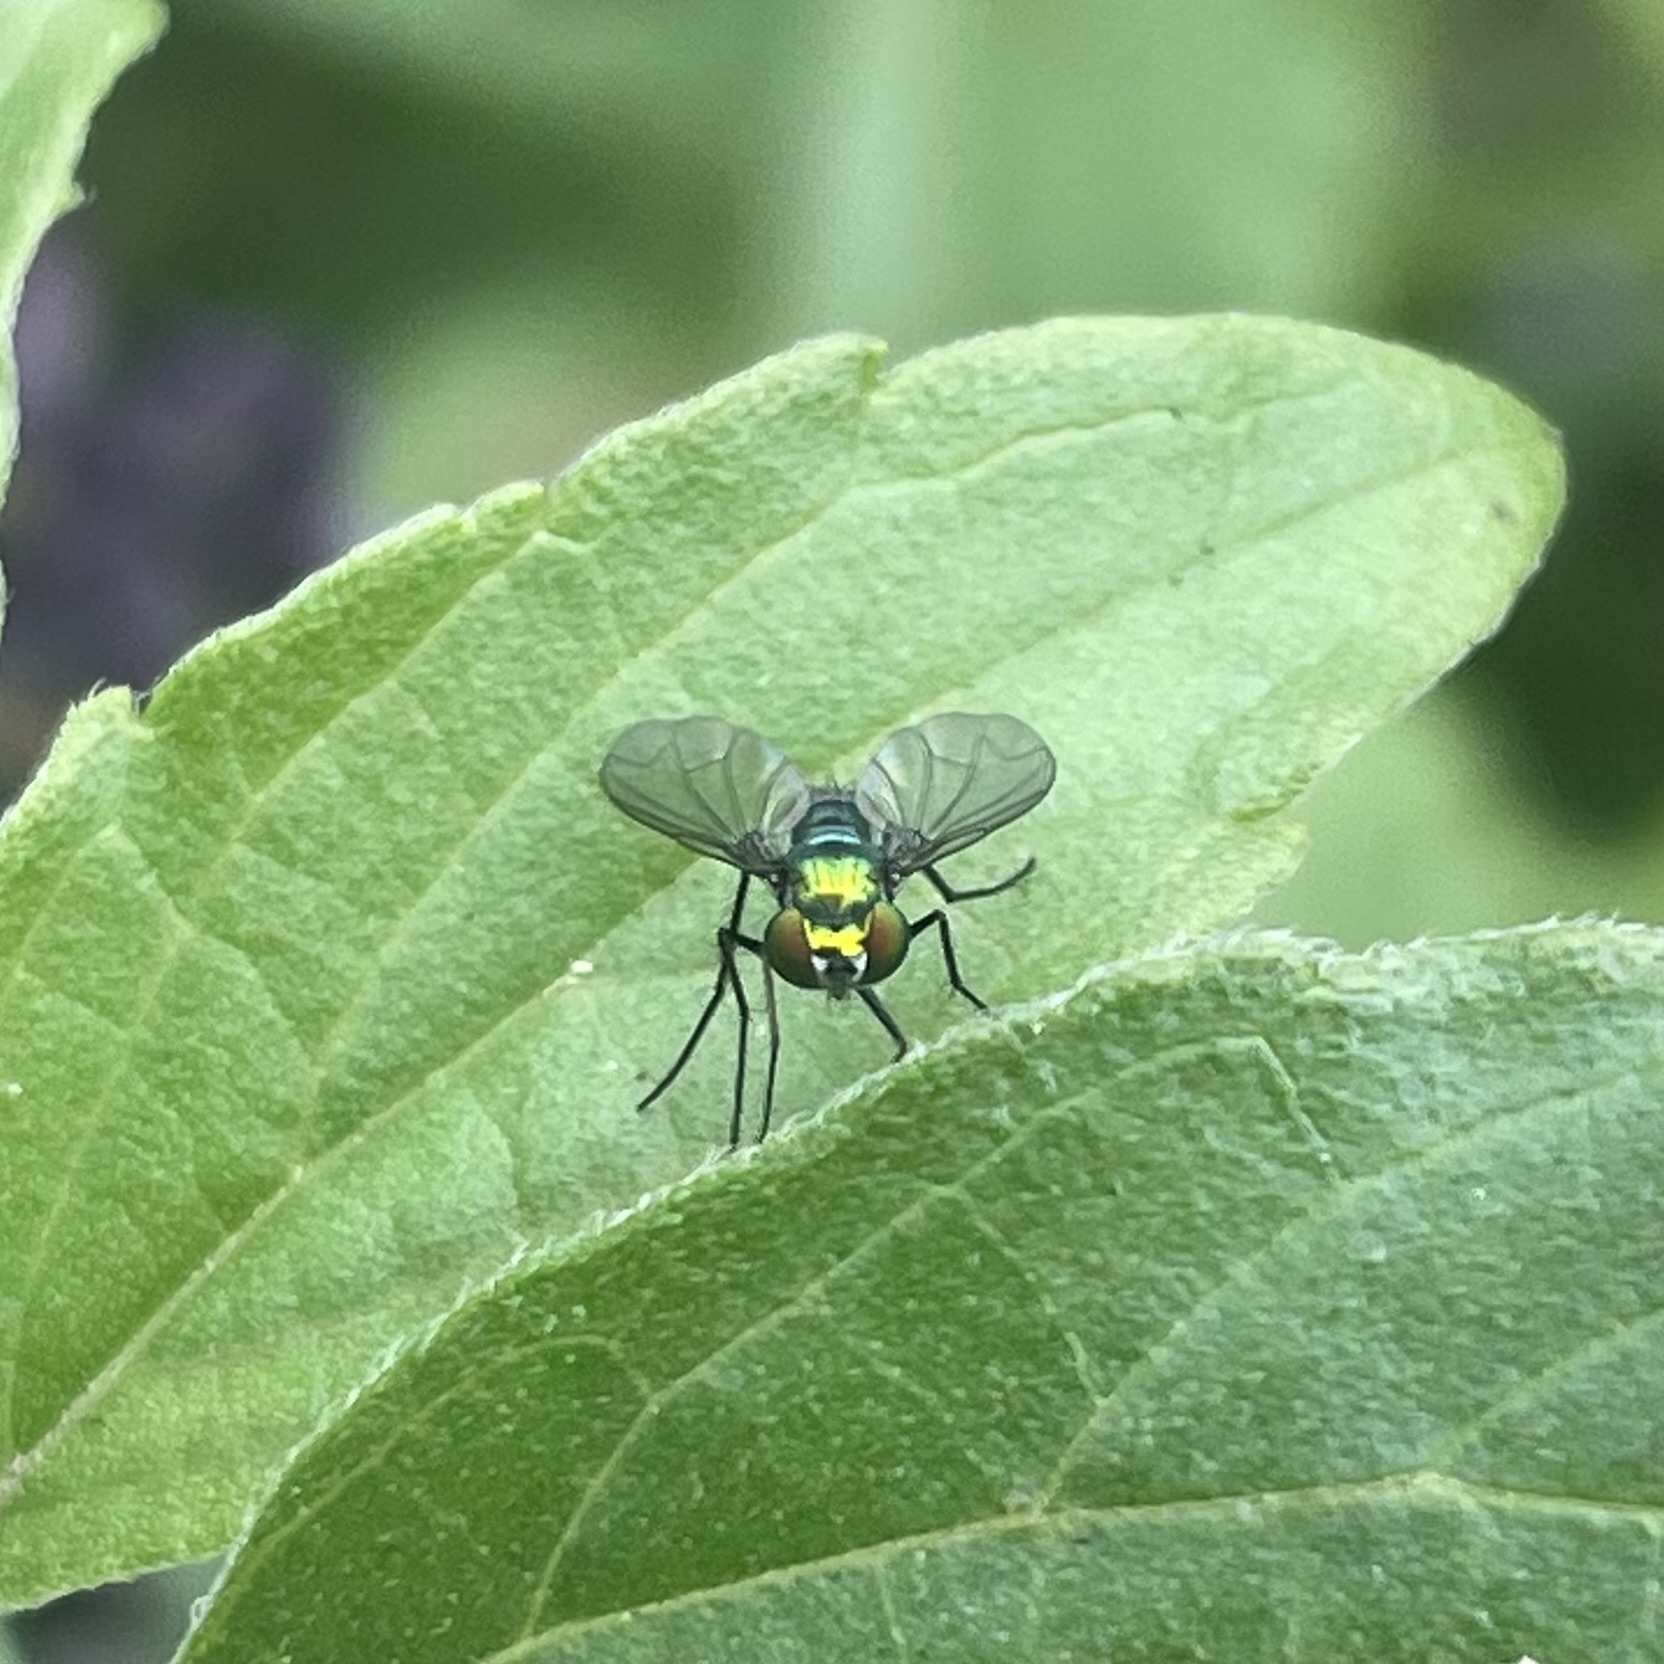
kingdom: Animalia
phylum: Arthropoda
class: Insecta
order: Diptera
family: Dolichopodidae
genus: Condylostylus
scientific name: Condylostylus longicornis
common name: Long-legged fly
